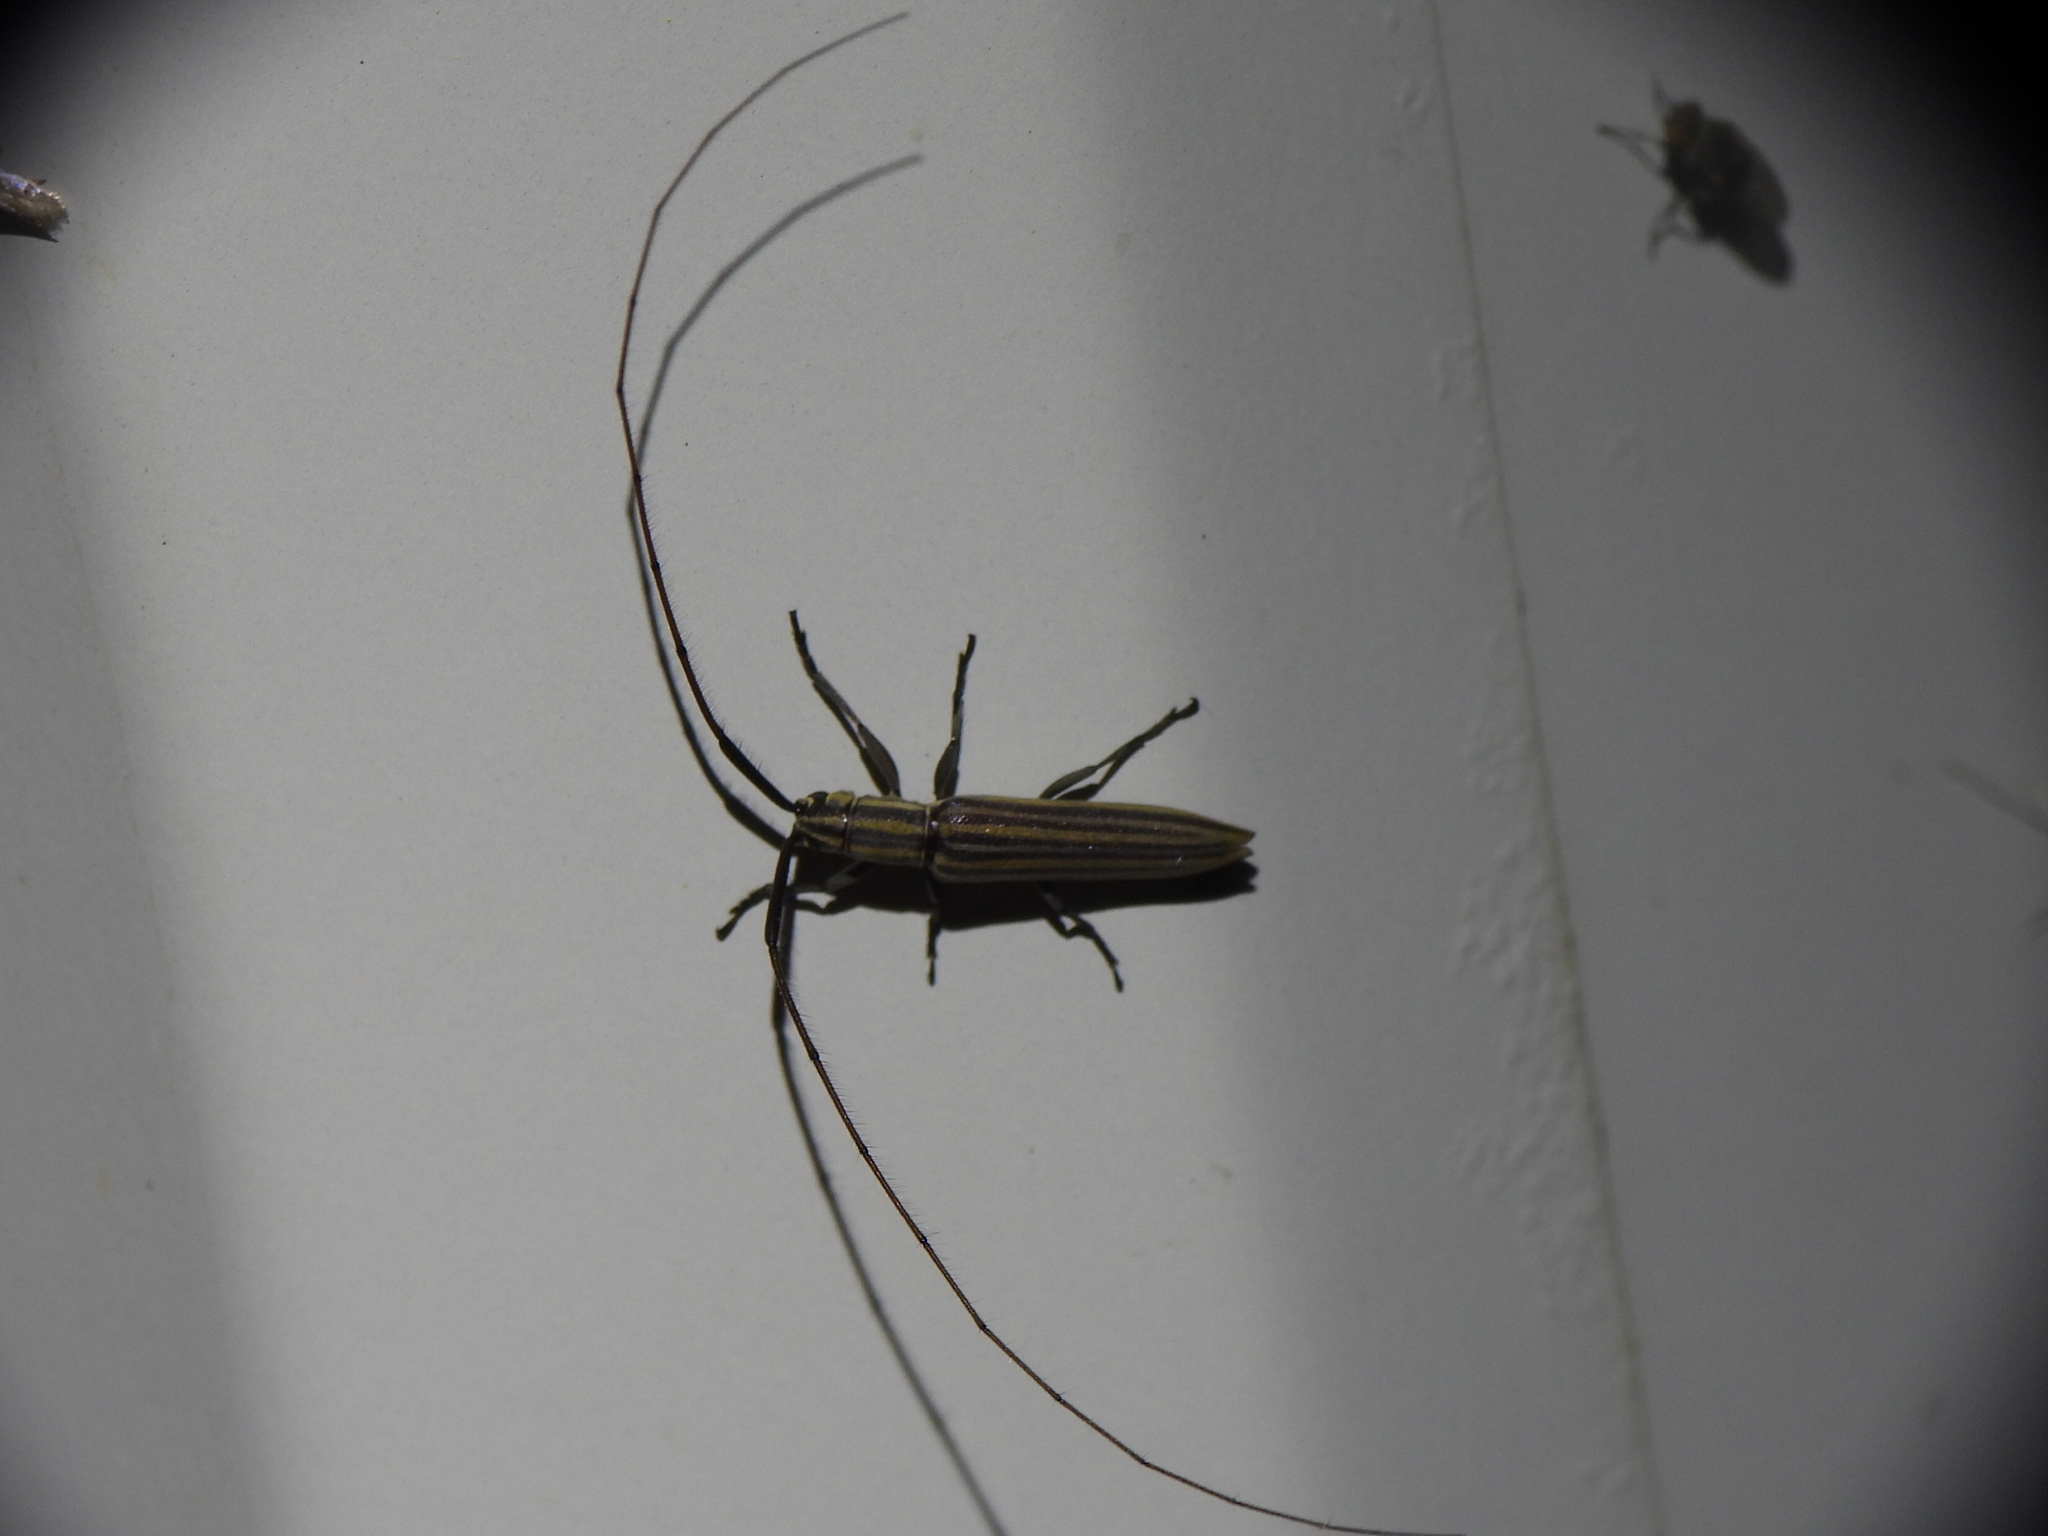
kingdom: Animalia
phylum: Arthropoda
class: Insecta
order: Coleoptera
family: Cerambycidae
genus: Hippopsis
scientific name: Hippopsis
